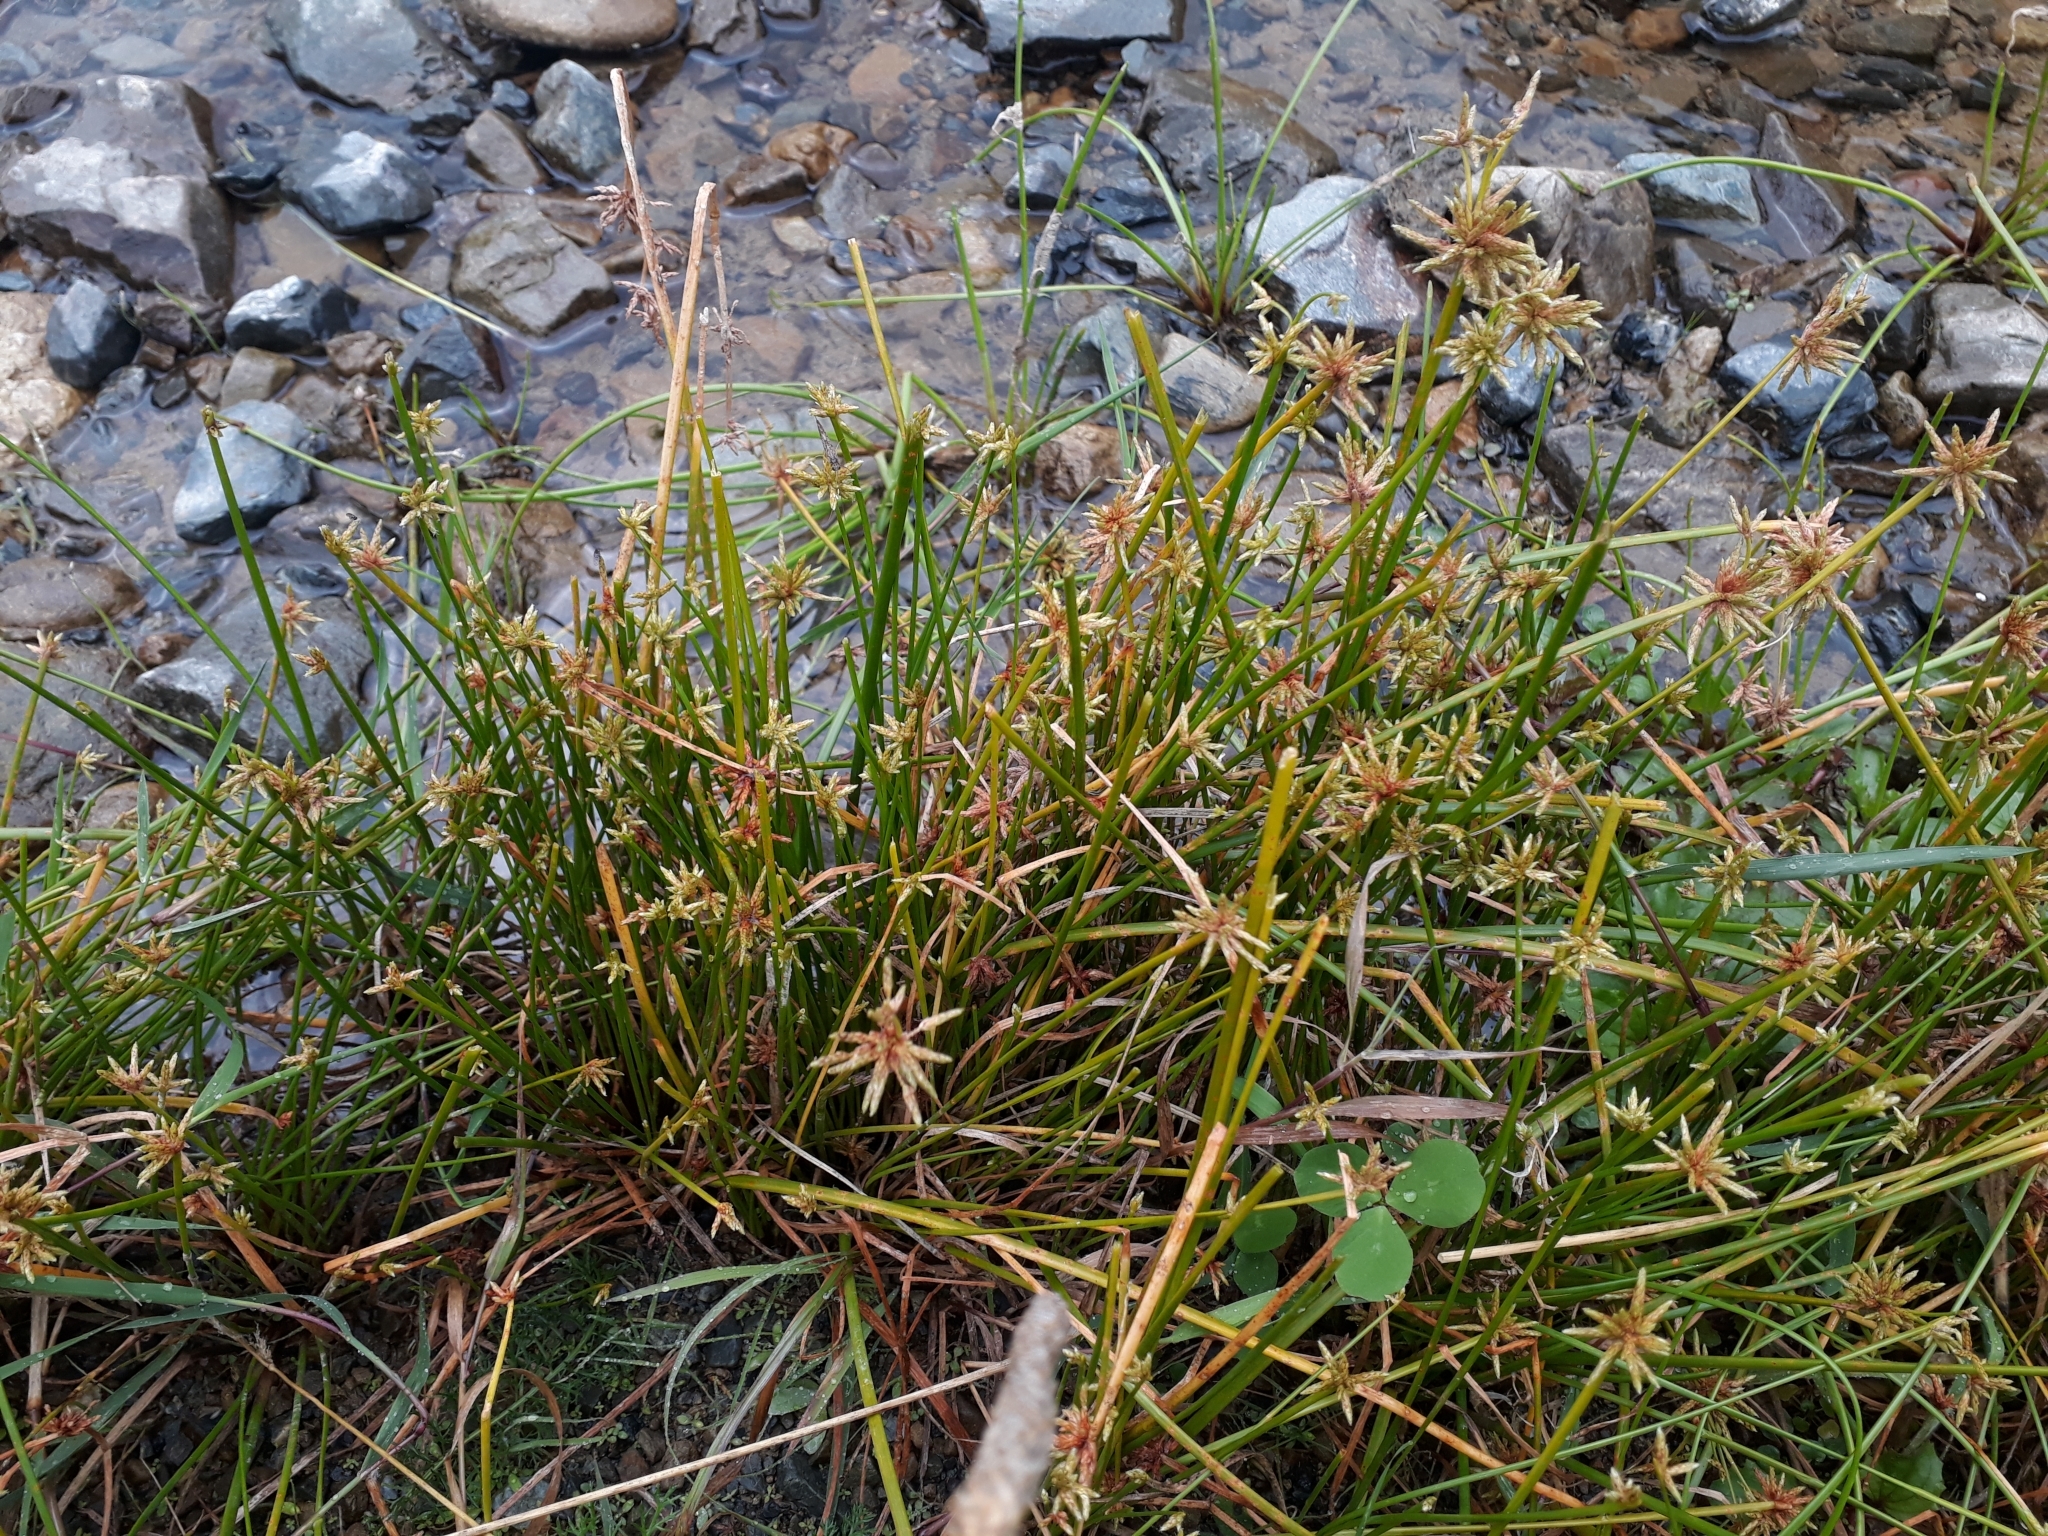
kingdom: Plantae
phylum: Tracheophyta
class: Liliopsida
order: Poales
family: Cyperaceae
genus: Isolepis
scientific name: Isolepis prolifera
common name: Proliferating bulrush
